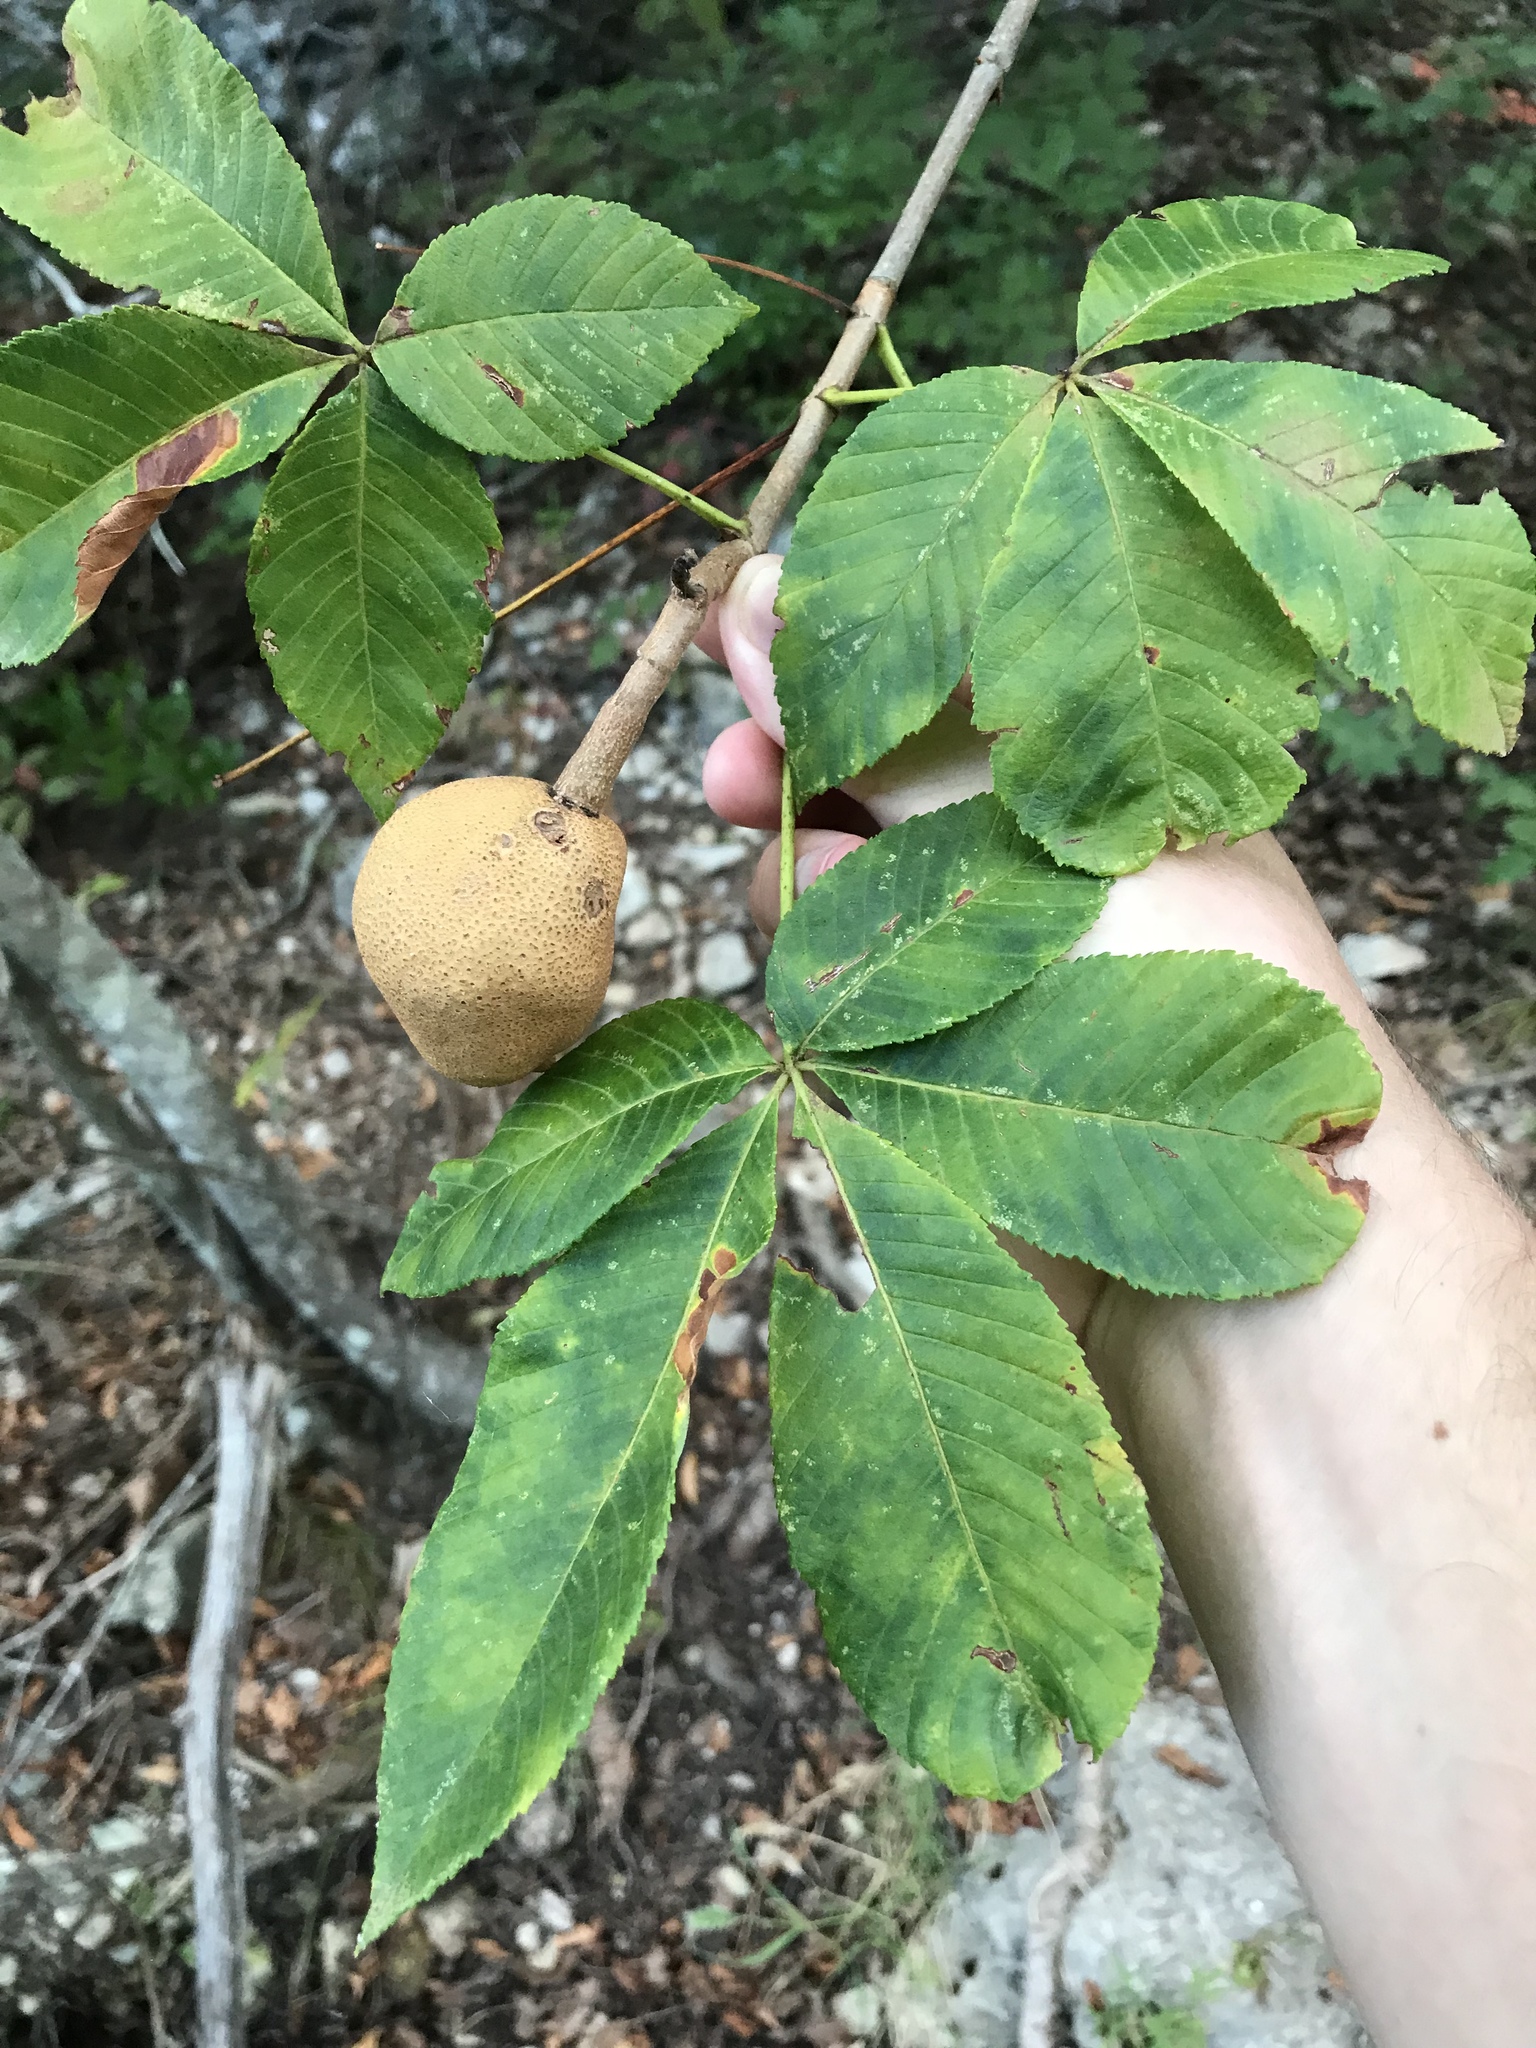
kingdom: Plantae
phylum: Tracheophyta
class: Magnoliopsida
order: Sapindales
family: Sapindaceae
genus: Aesculus
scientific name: Aesculus pavia
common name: Red buckeye
